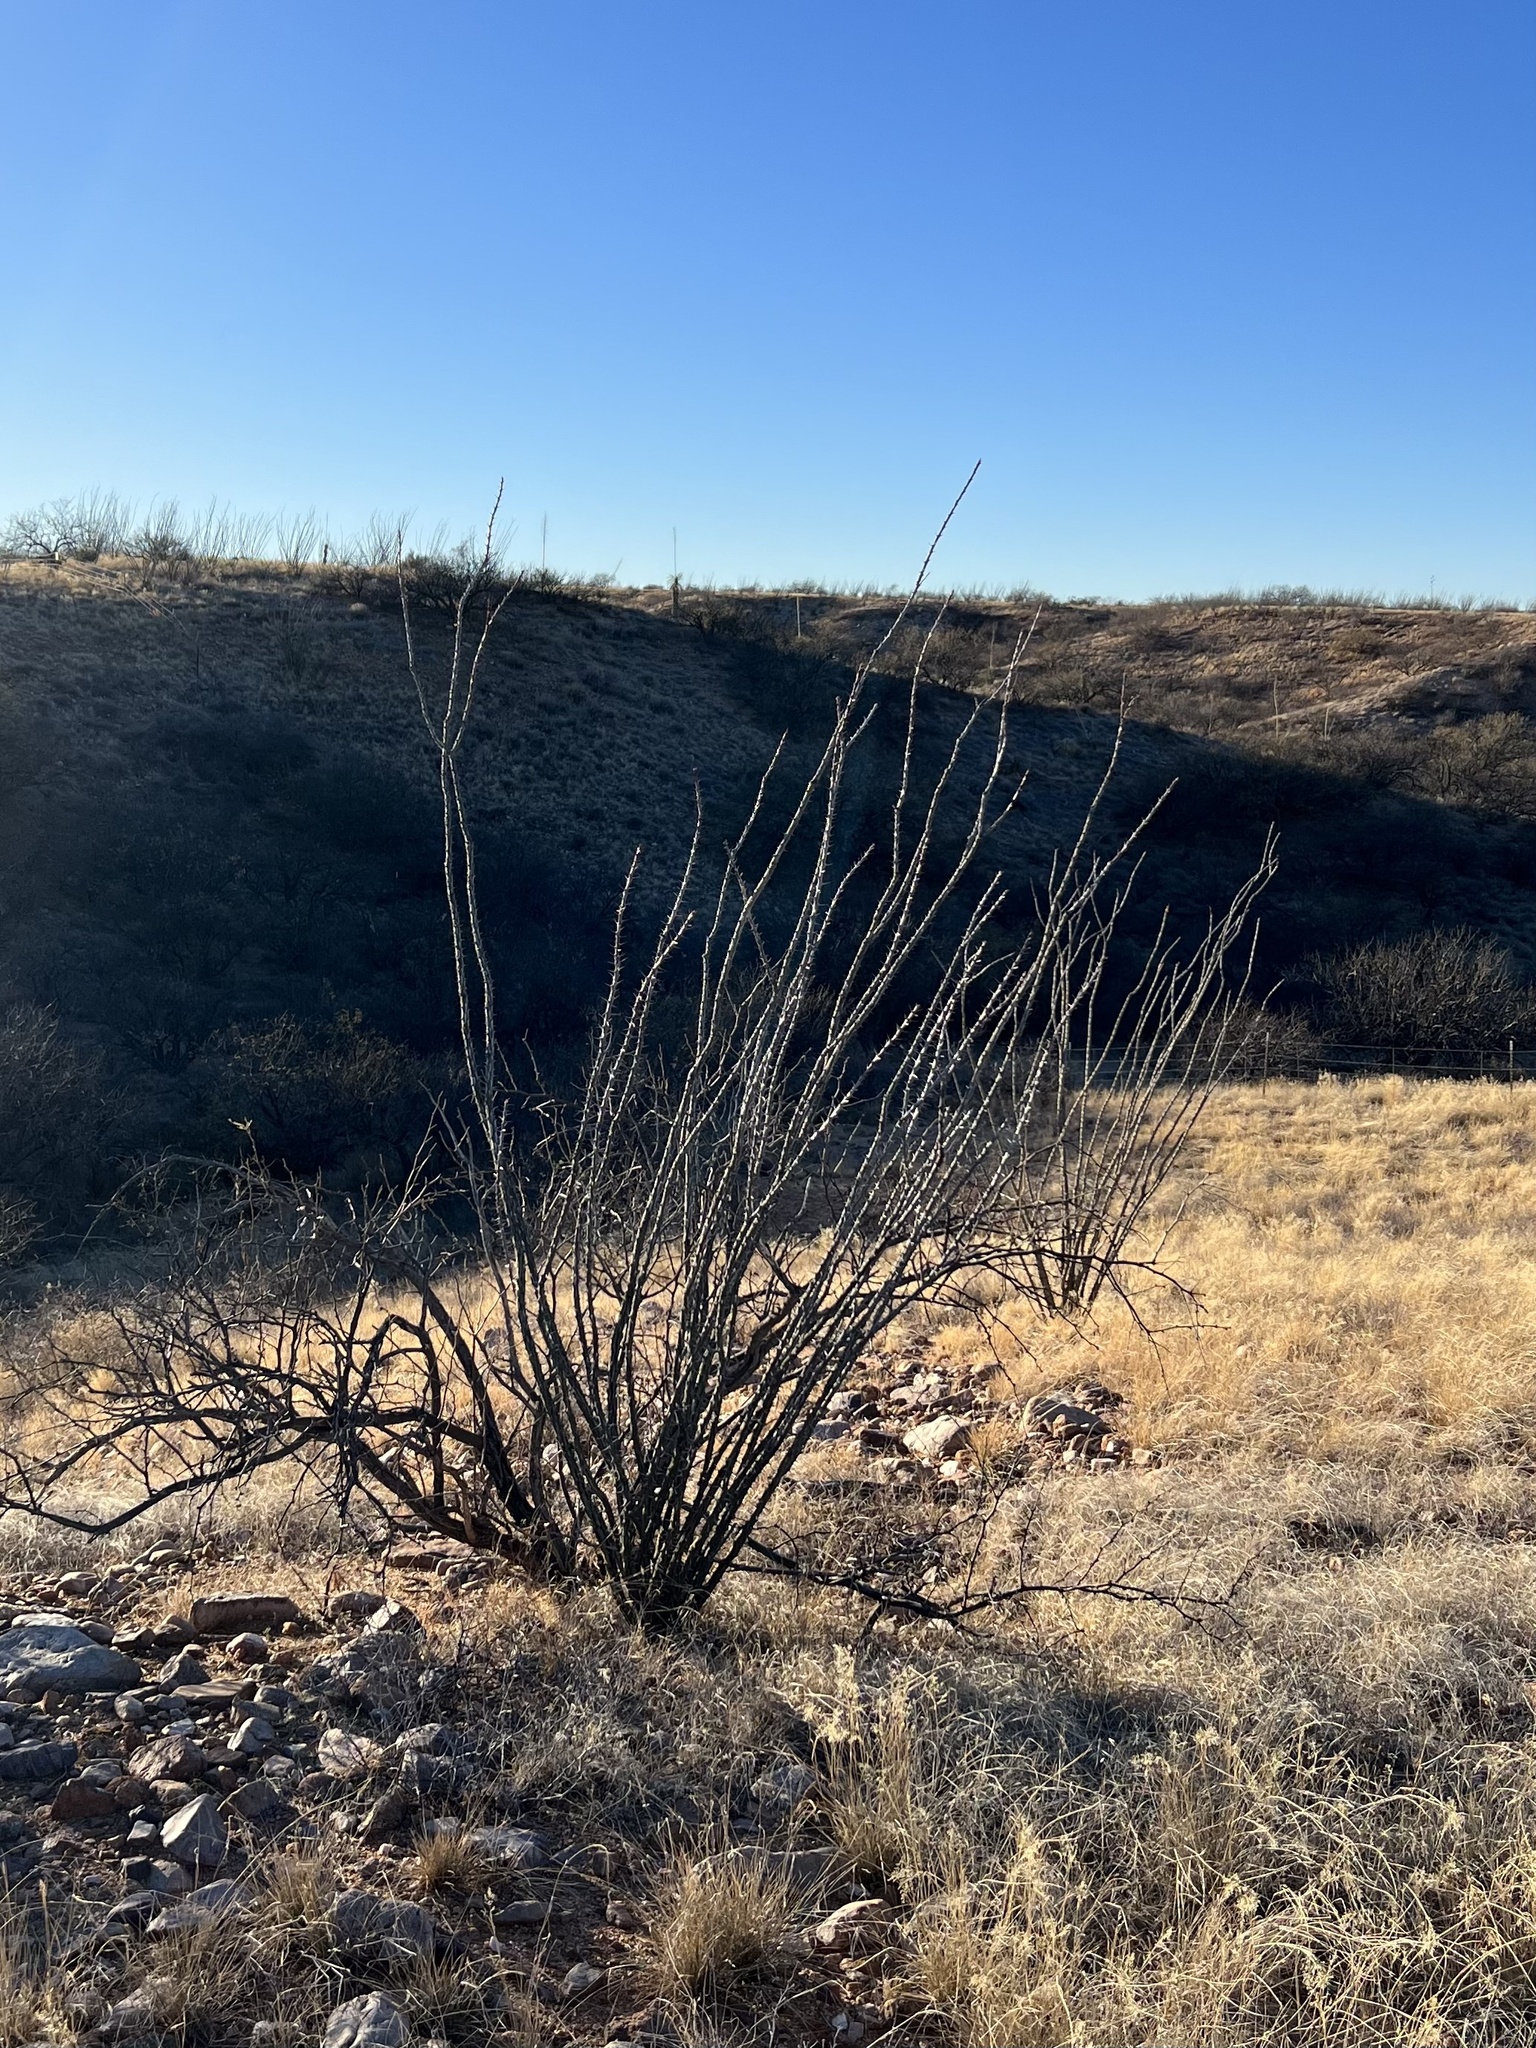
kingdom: Plantae
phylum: Tracheophyta
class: Magnoliopsida
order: Ericales
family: Fouquieriaceae
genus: Fouquieria
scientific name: Fouquieria splendens
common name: Vine-cactus
